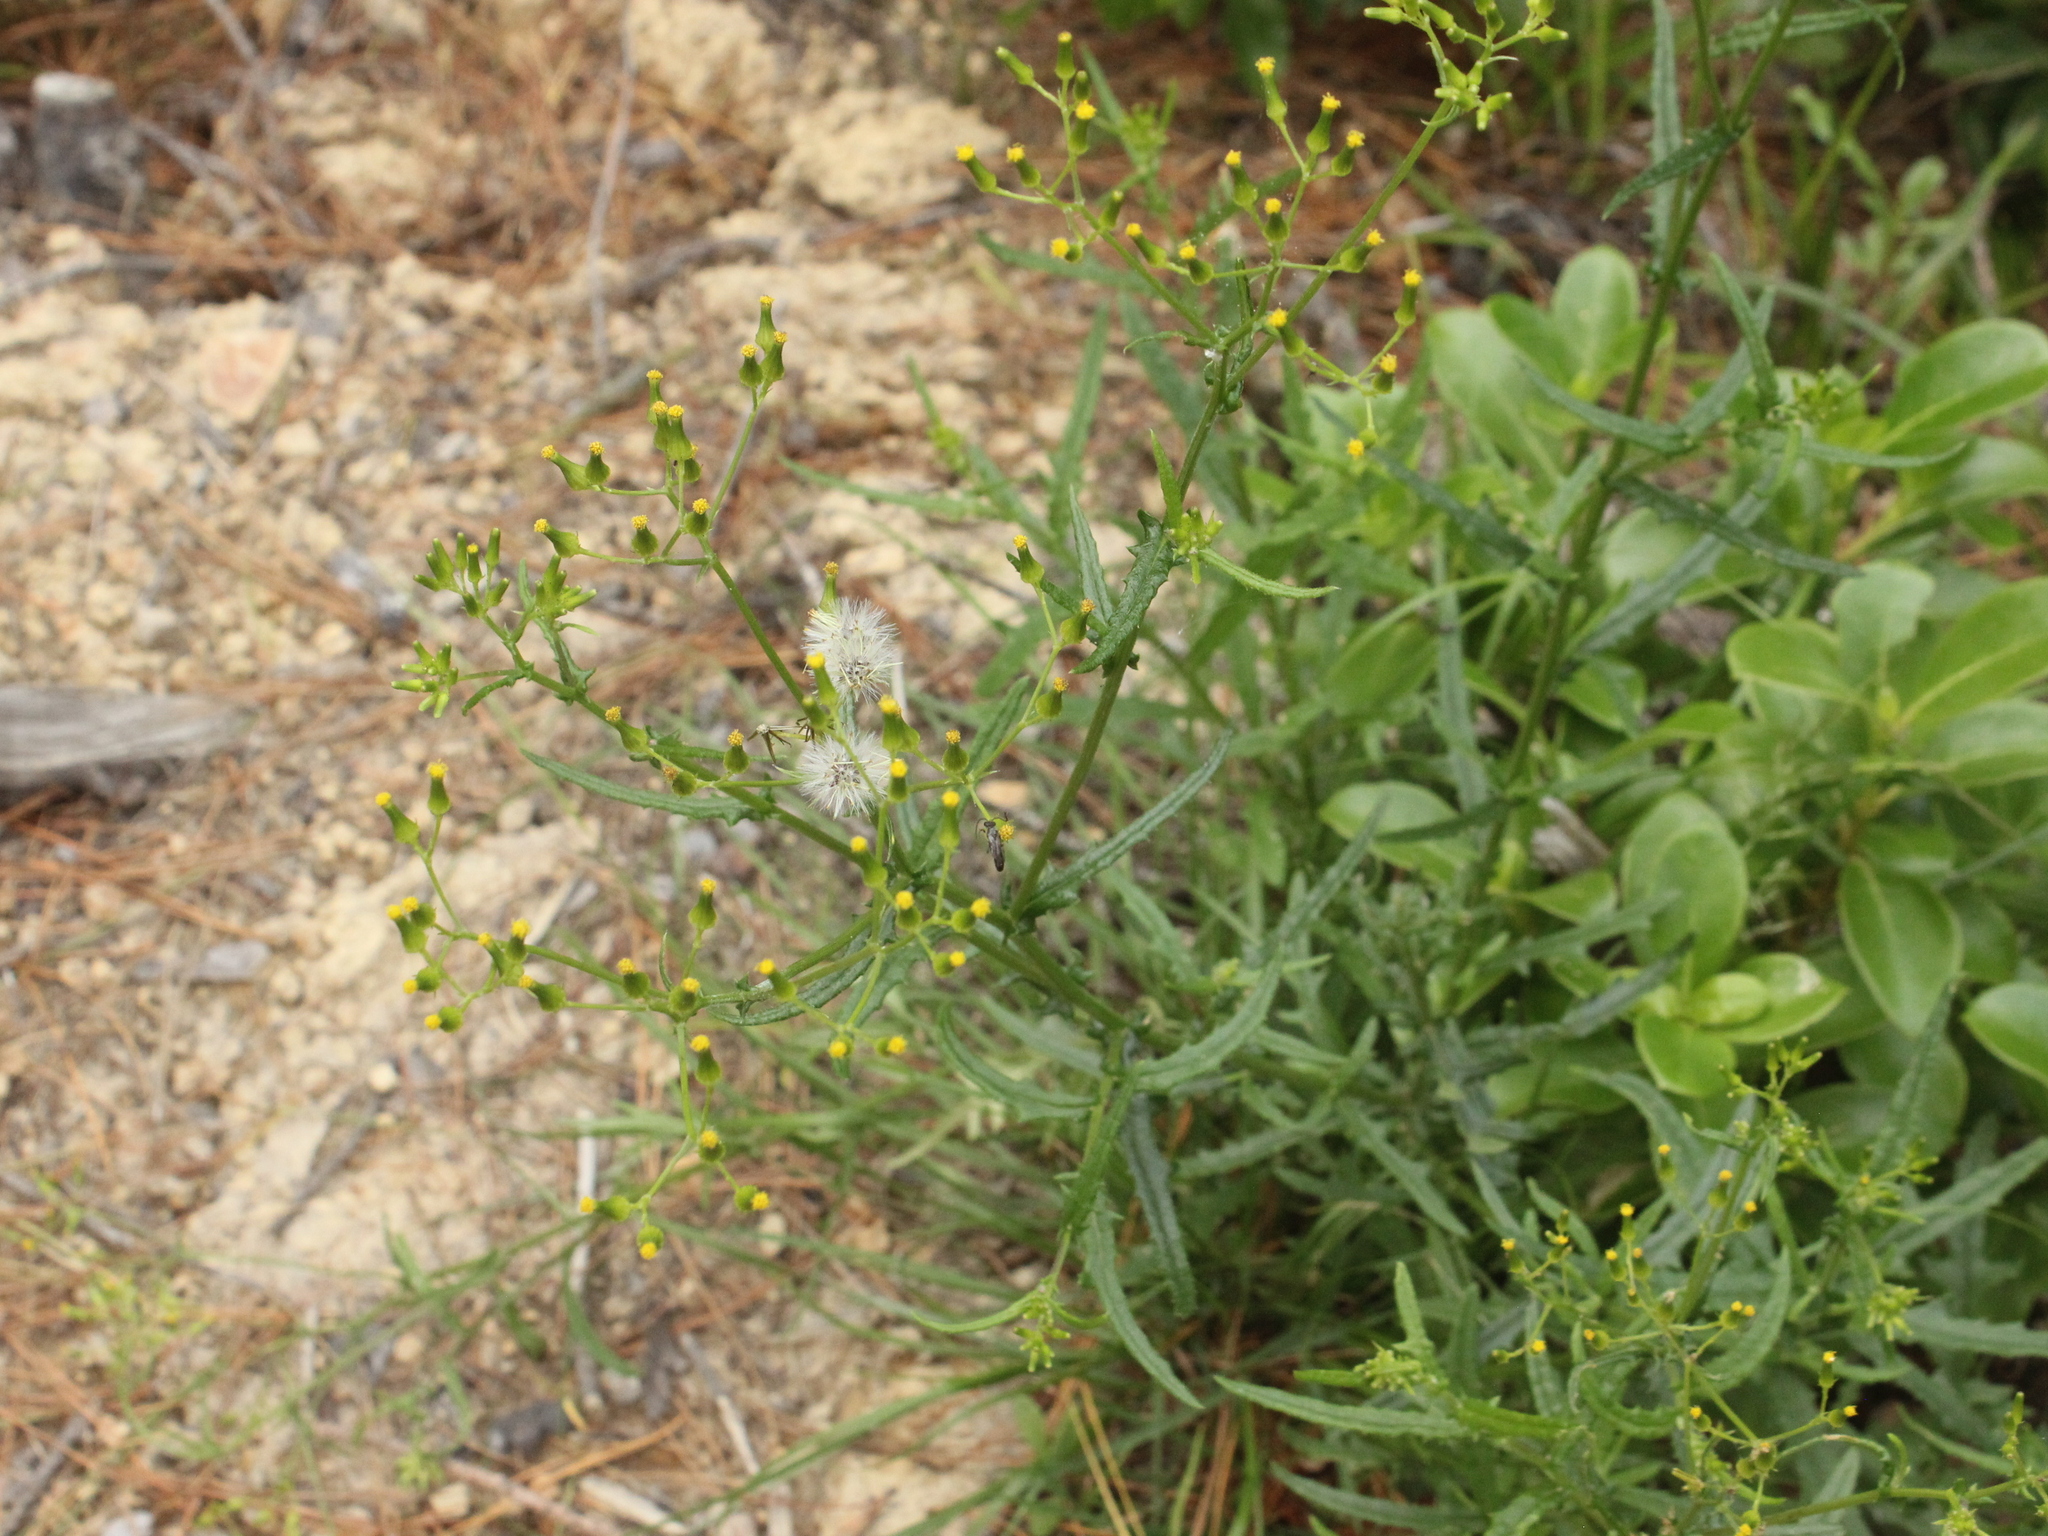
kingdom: Plantae
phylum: Tracheophyta
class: Magnoliopsida
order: Asterales
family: Asteraceae
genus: Senecio
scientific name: Senecio hispidulus
